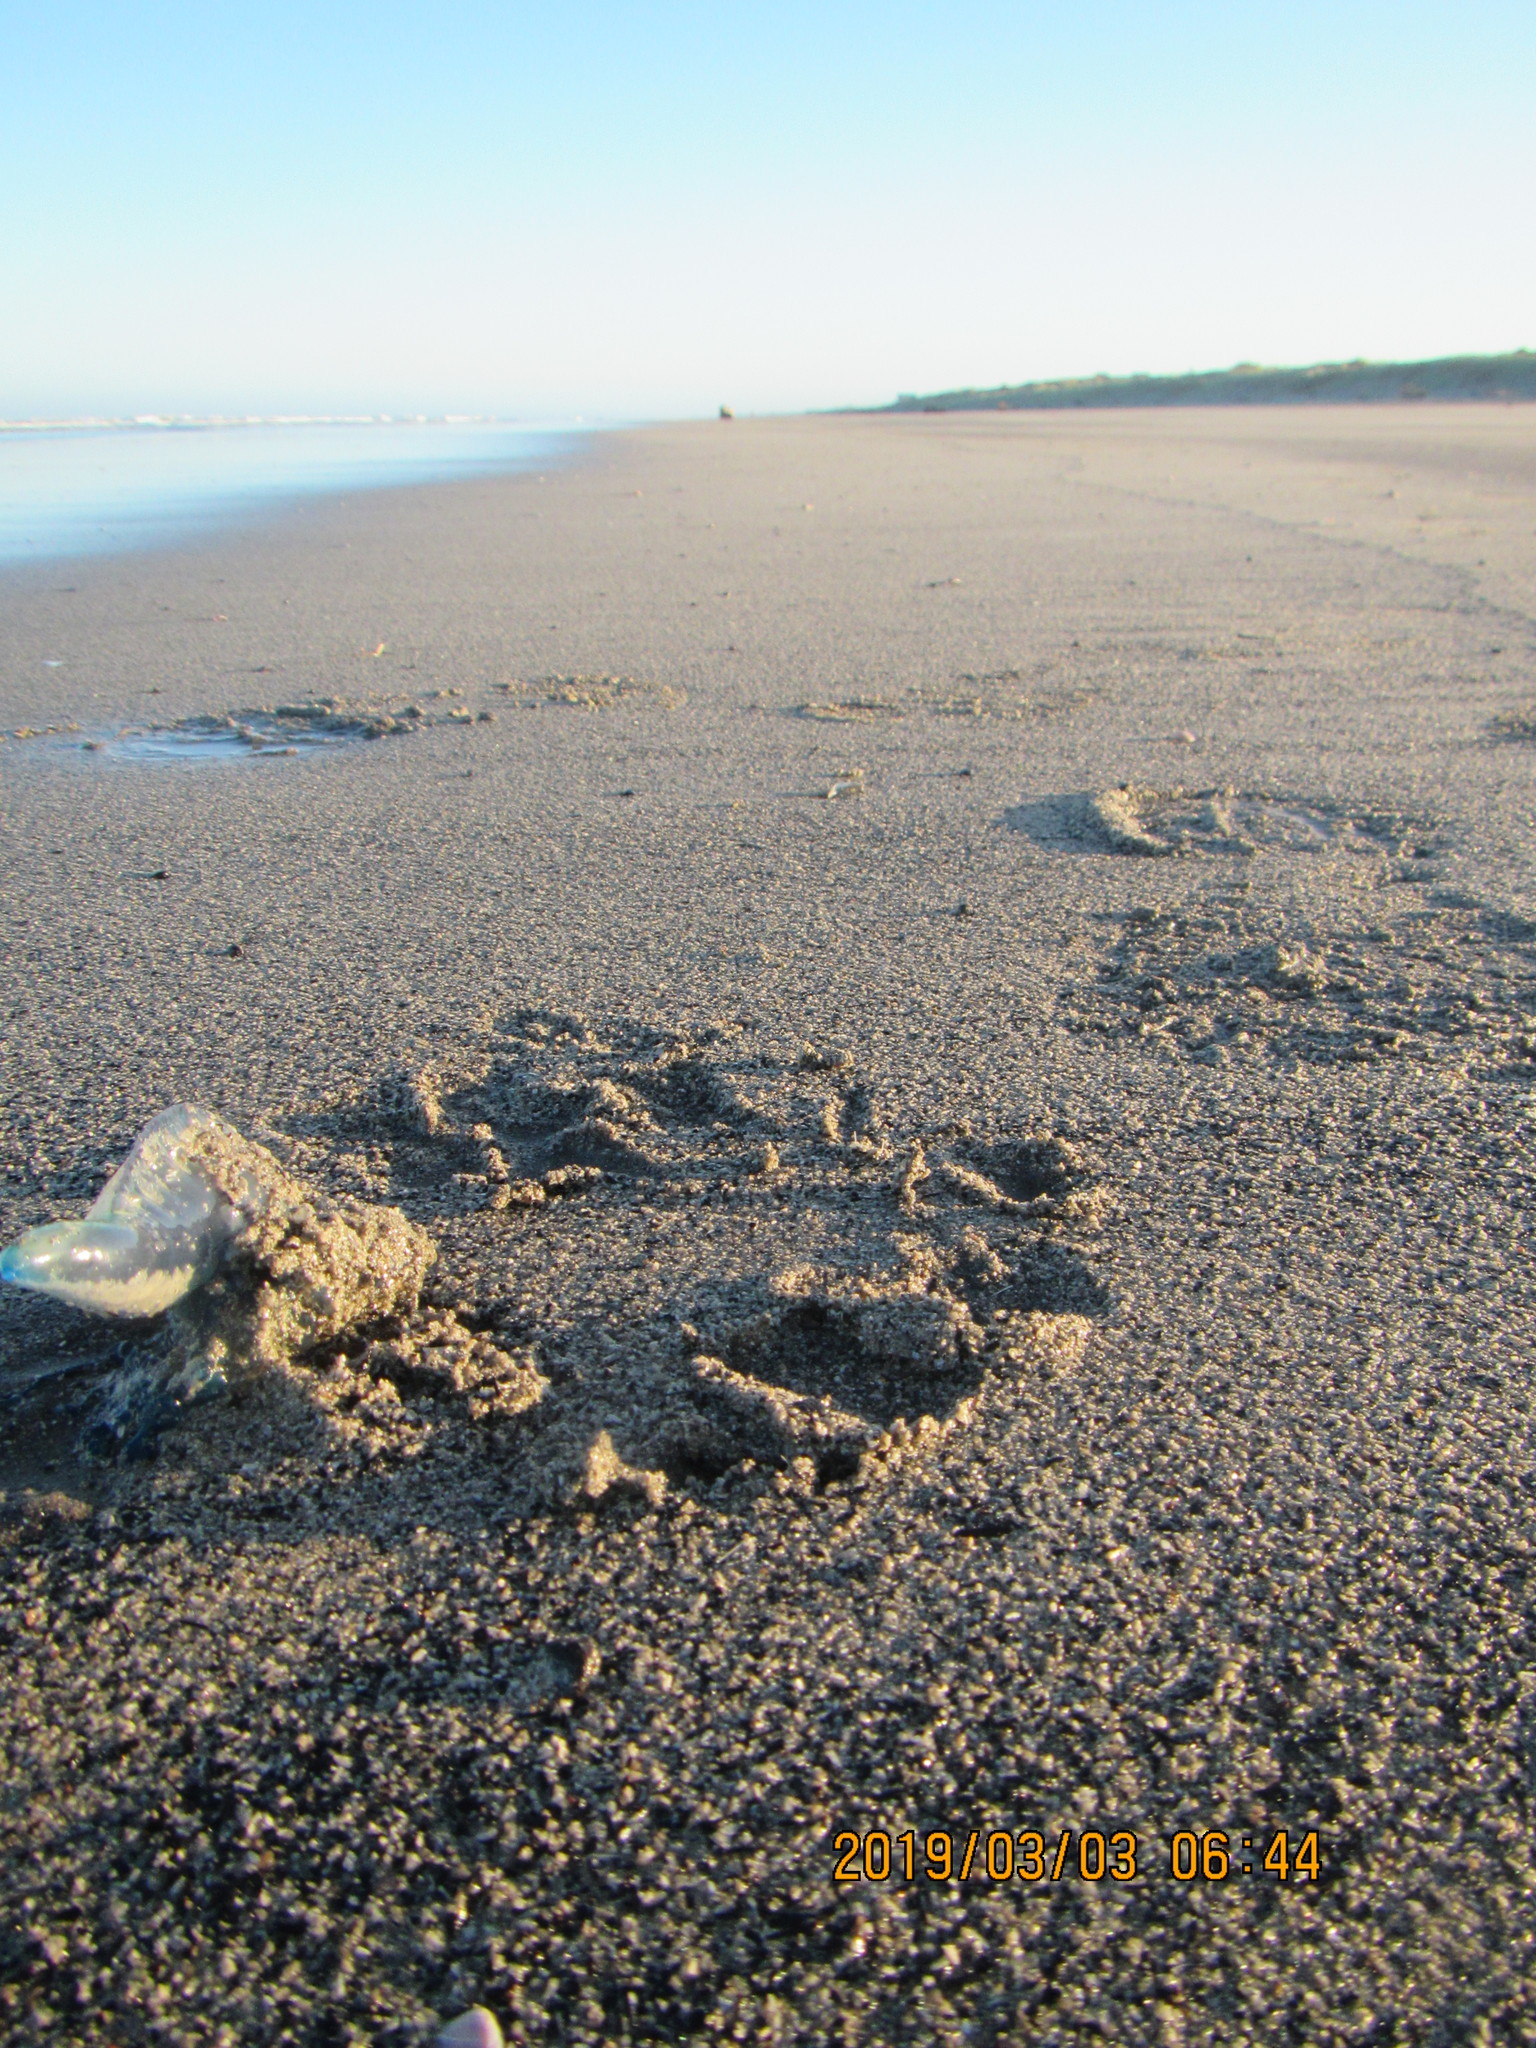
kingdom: Animalia
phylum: Cnidaria
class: Hydrozoa
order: Siphonophorae
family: Physaliidae
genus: Physalia
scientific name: Physalia physalis
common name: Portuguese man-of-war
